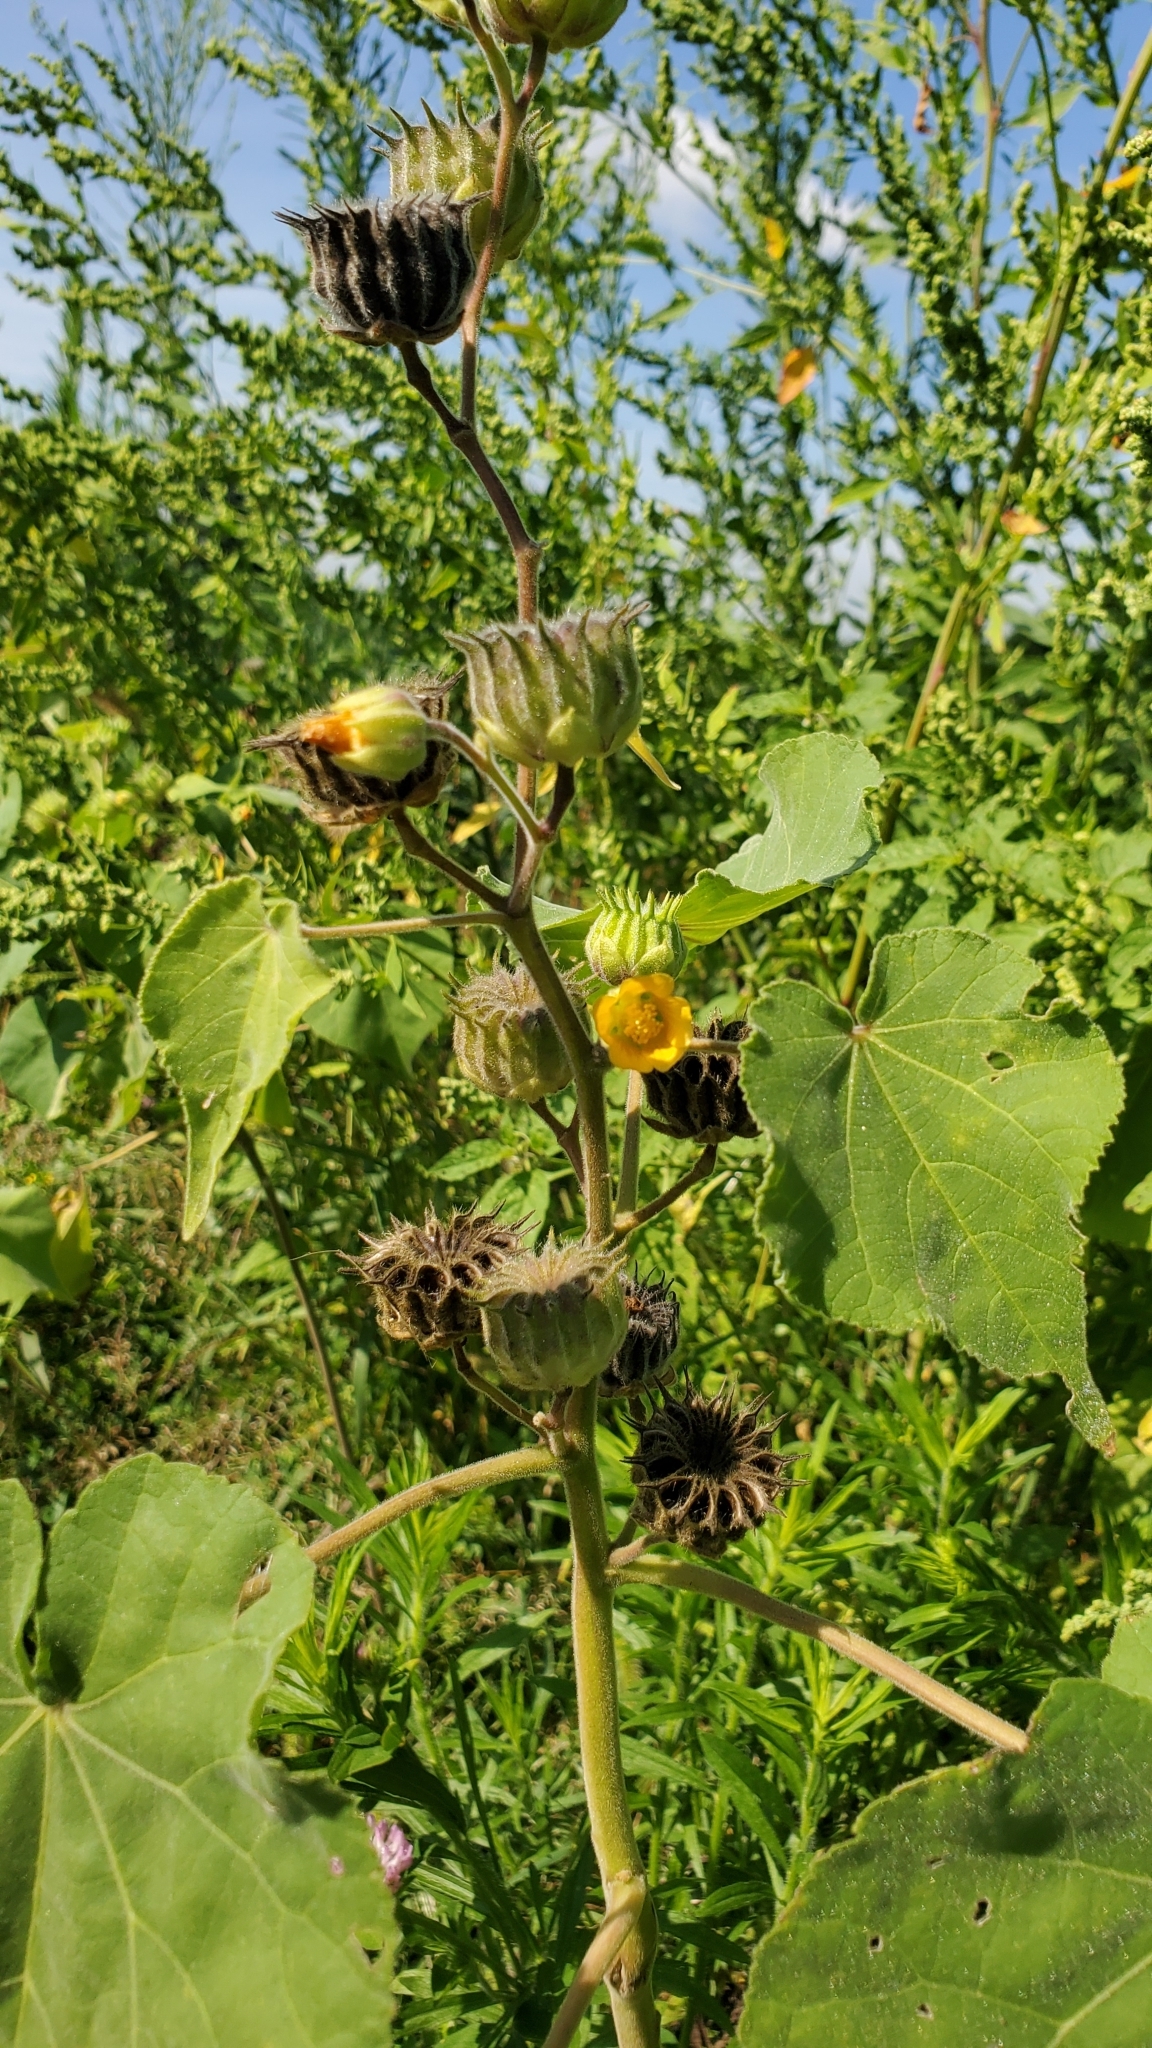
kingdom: Plantae
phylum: Tracheophyta
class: Magnoliopsida
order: Malvales
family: Malvaceae
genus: Abutilon
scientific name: Abutilon theophrasti
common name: Velvetleaf
